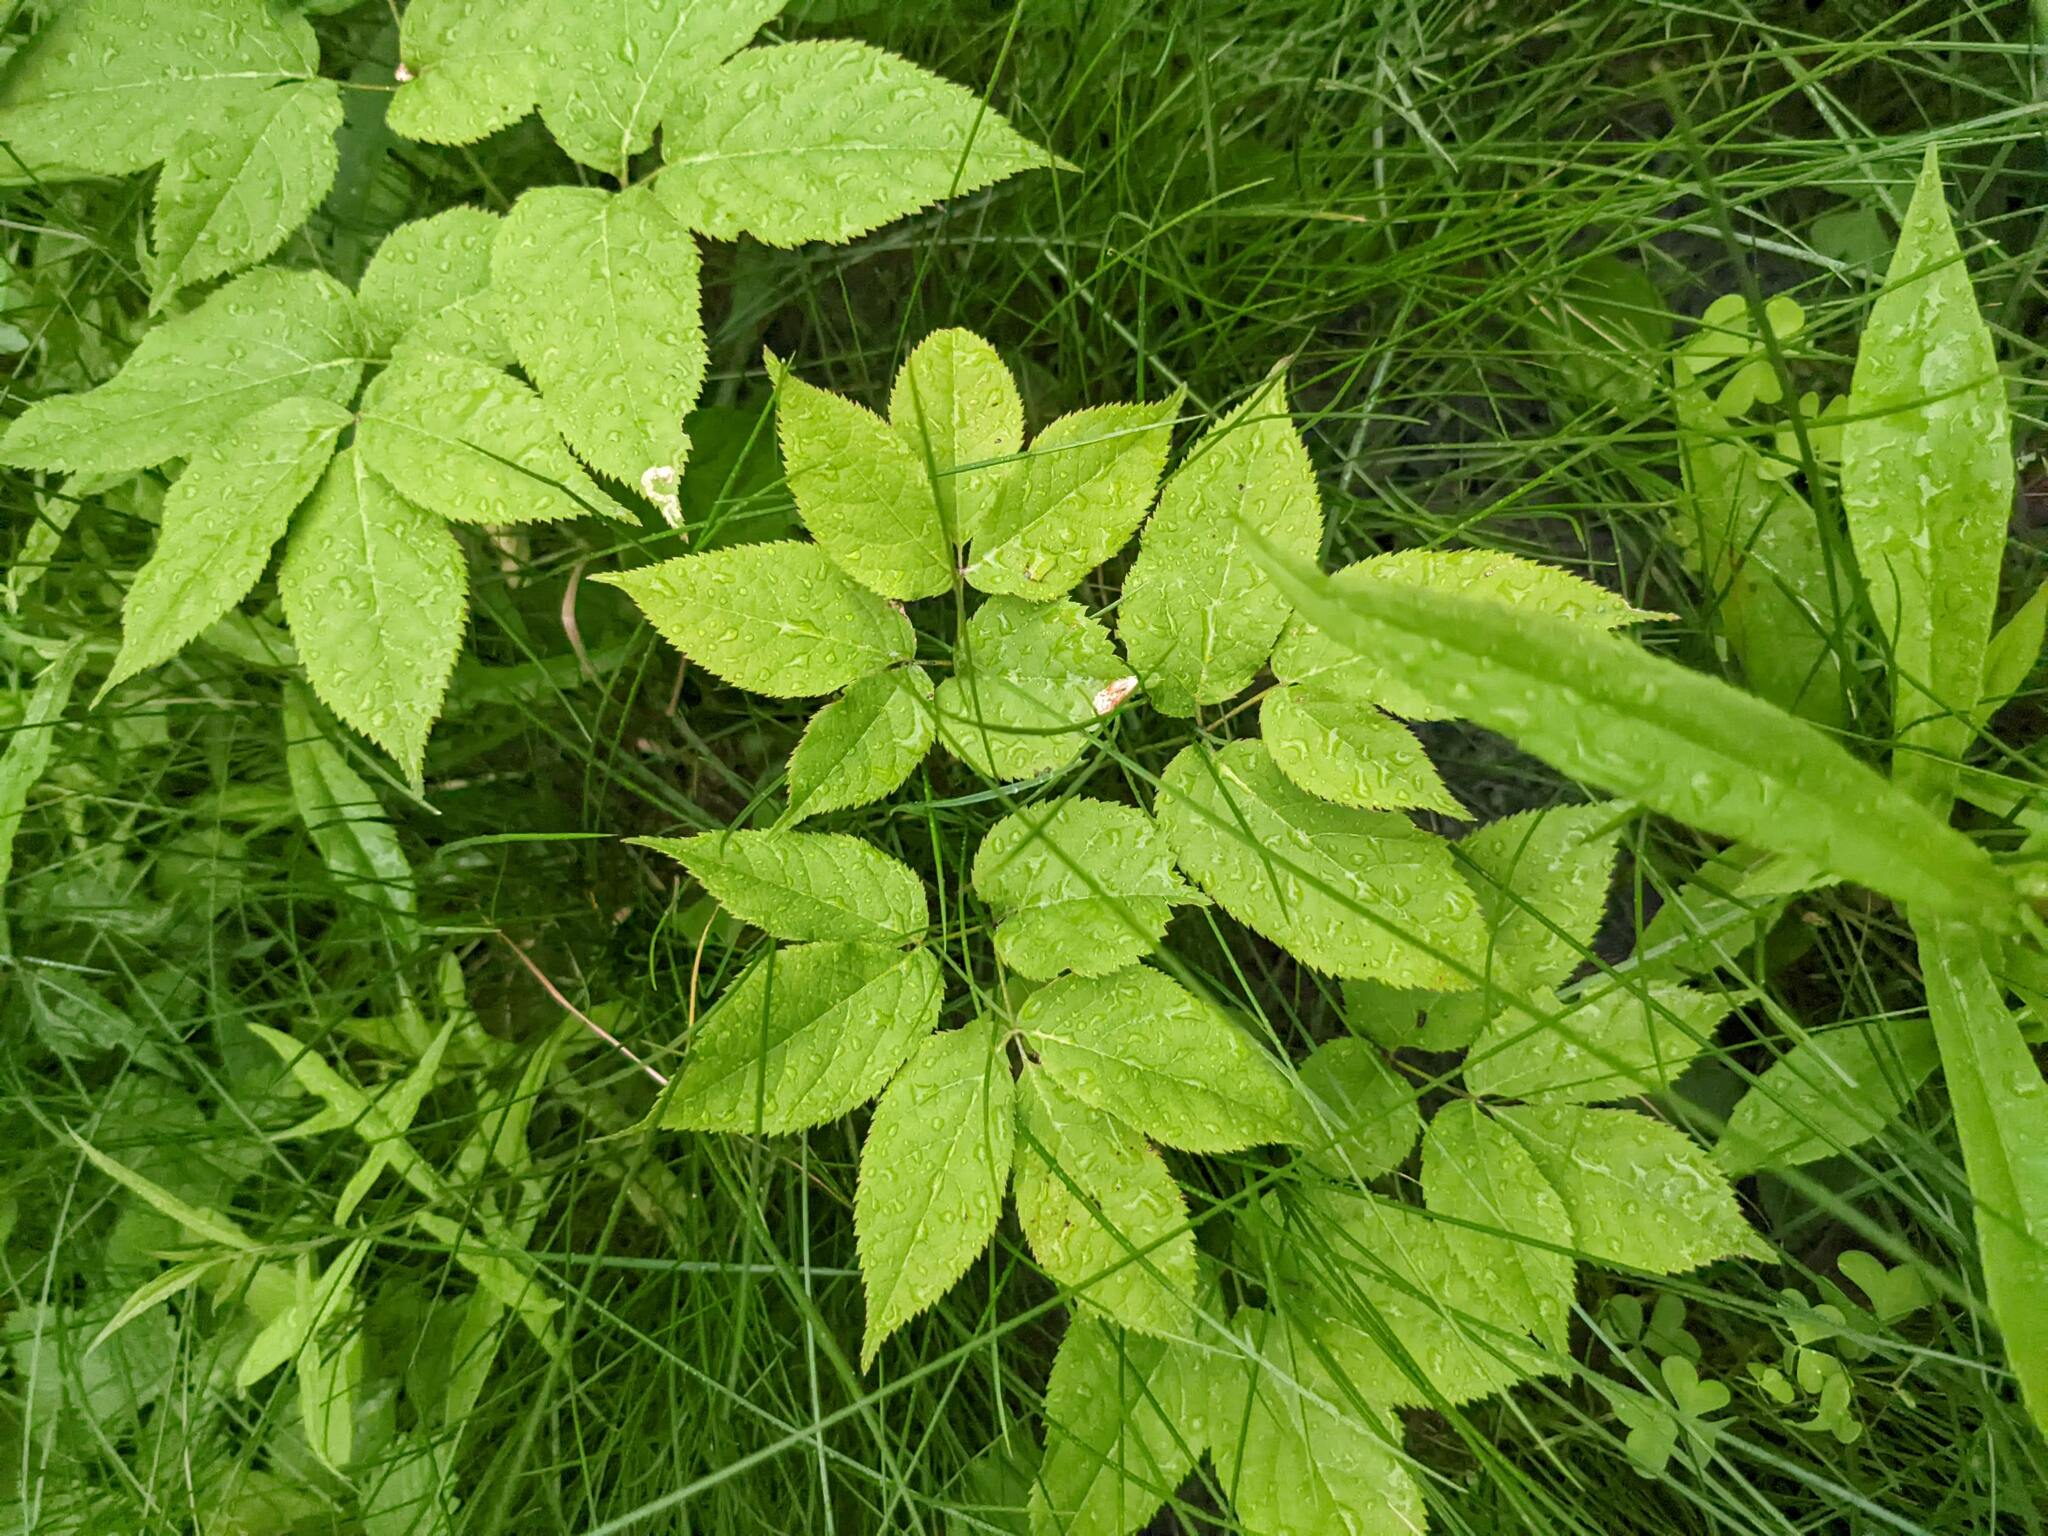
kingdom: Plantae
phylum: Tracheophyta
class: Magnoliopsida
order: Apiales
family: Araliaceae
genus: Aralia
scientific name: Aralia nudicaulis
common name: Wild sarsaparilla
